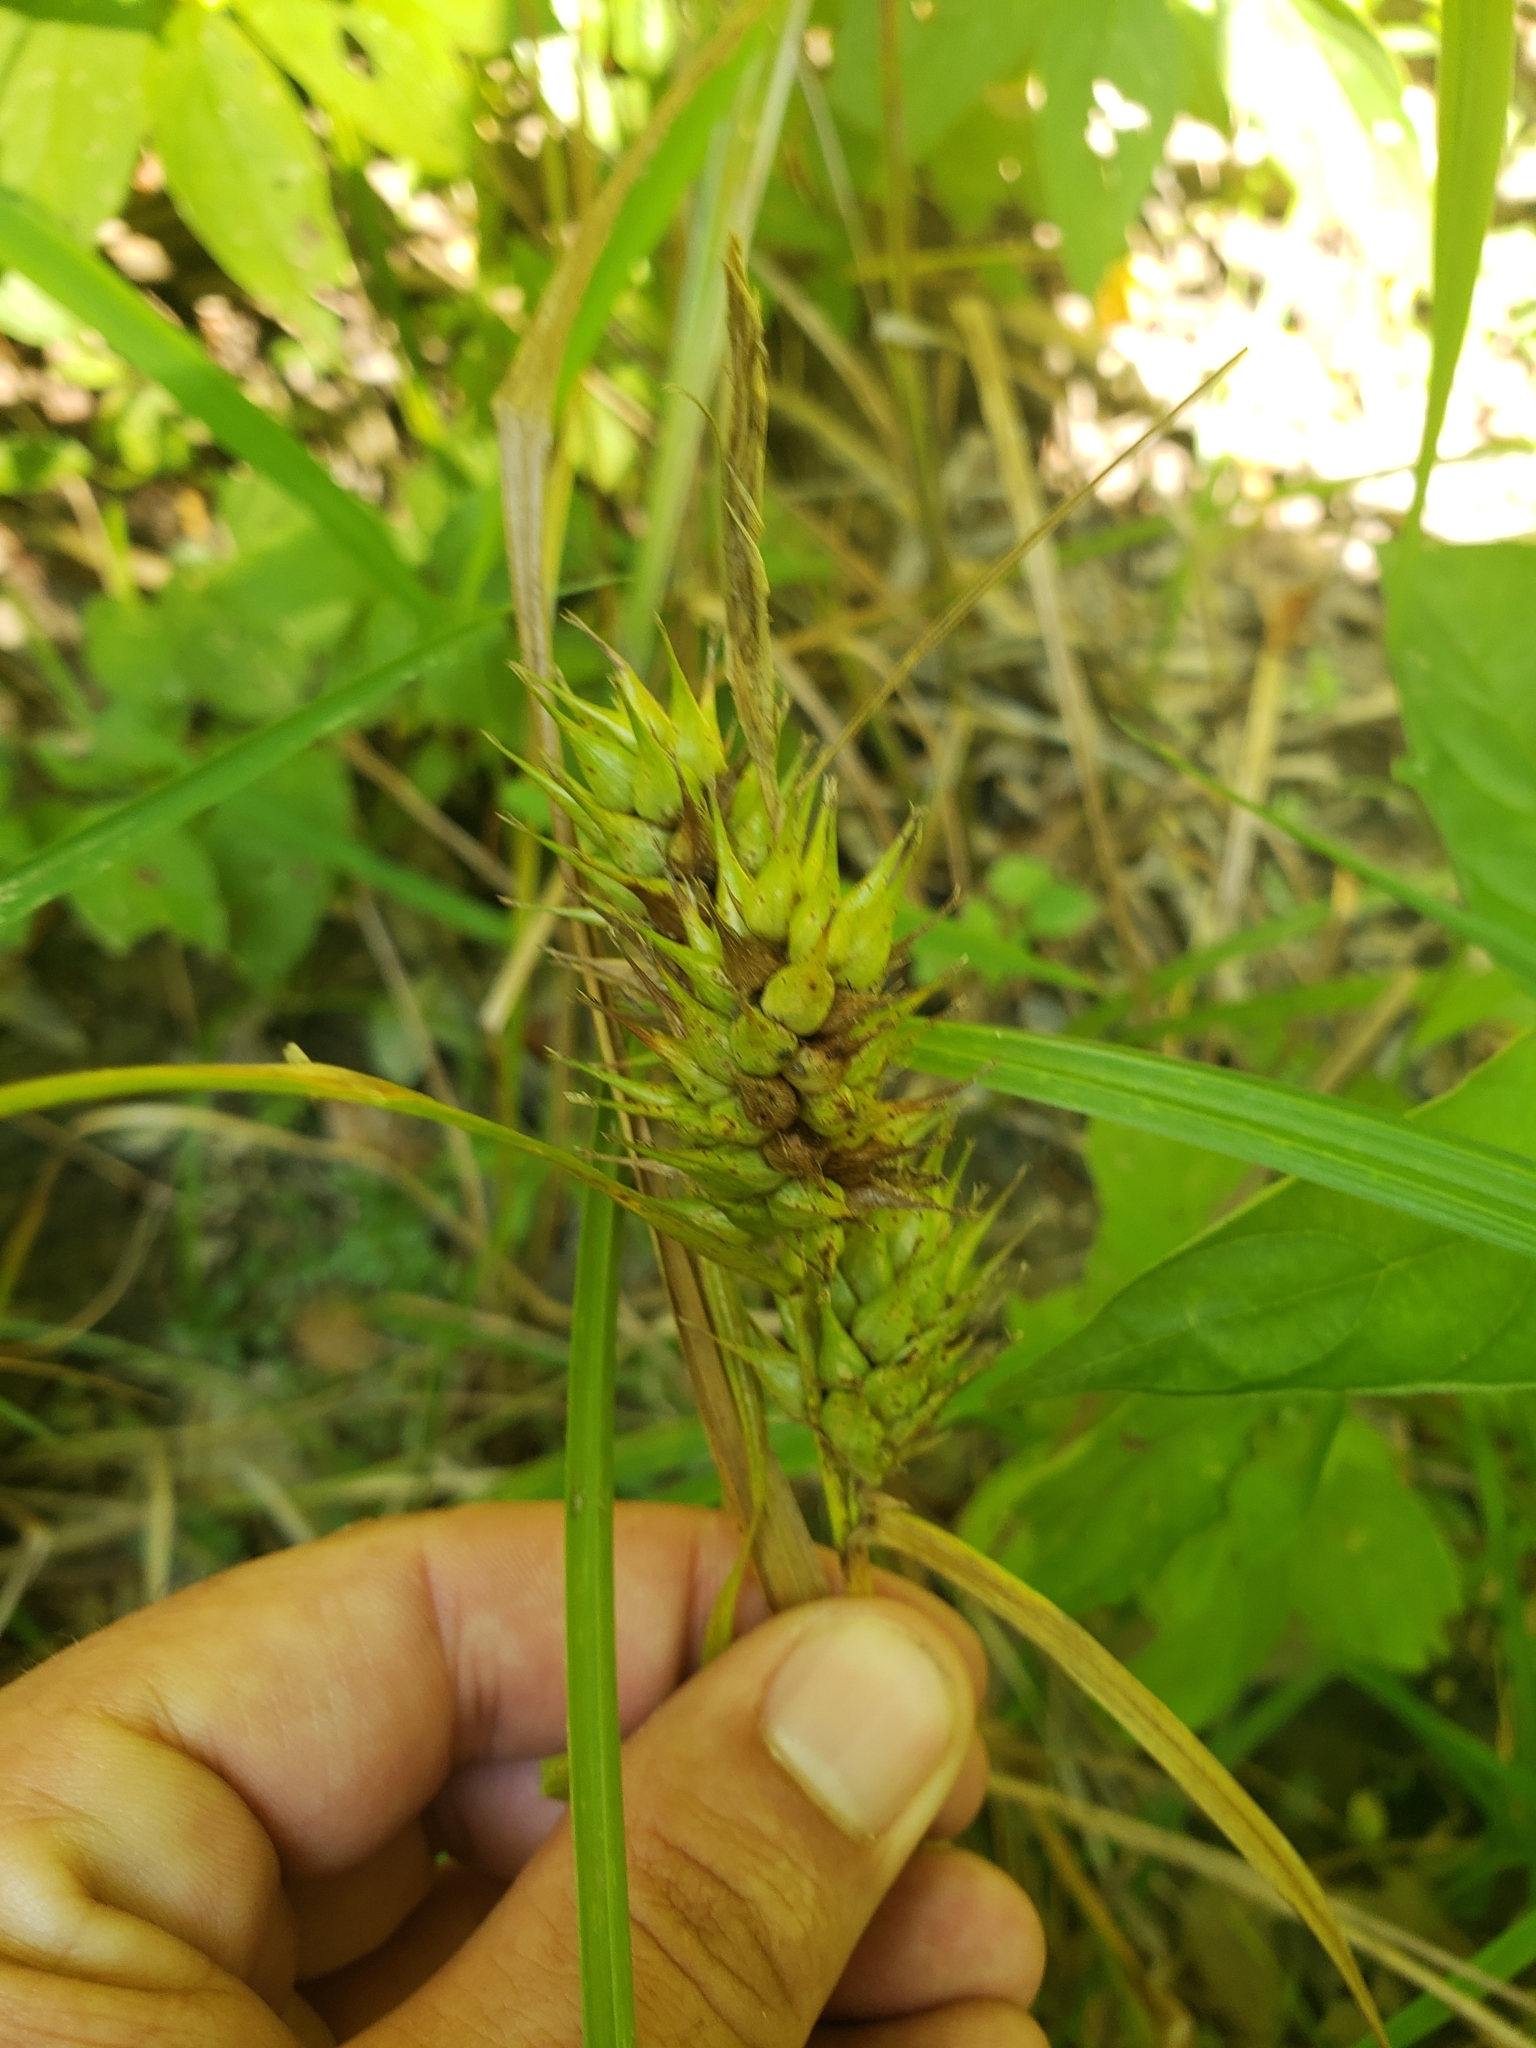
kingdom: Plantae
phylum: Tracheophyta
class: Liliopsida
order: Poales
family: Cyperaceae
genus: Carex
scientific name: Carex lupulina
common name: Hop sedge
